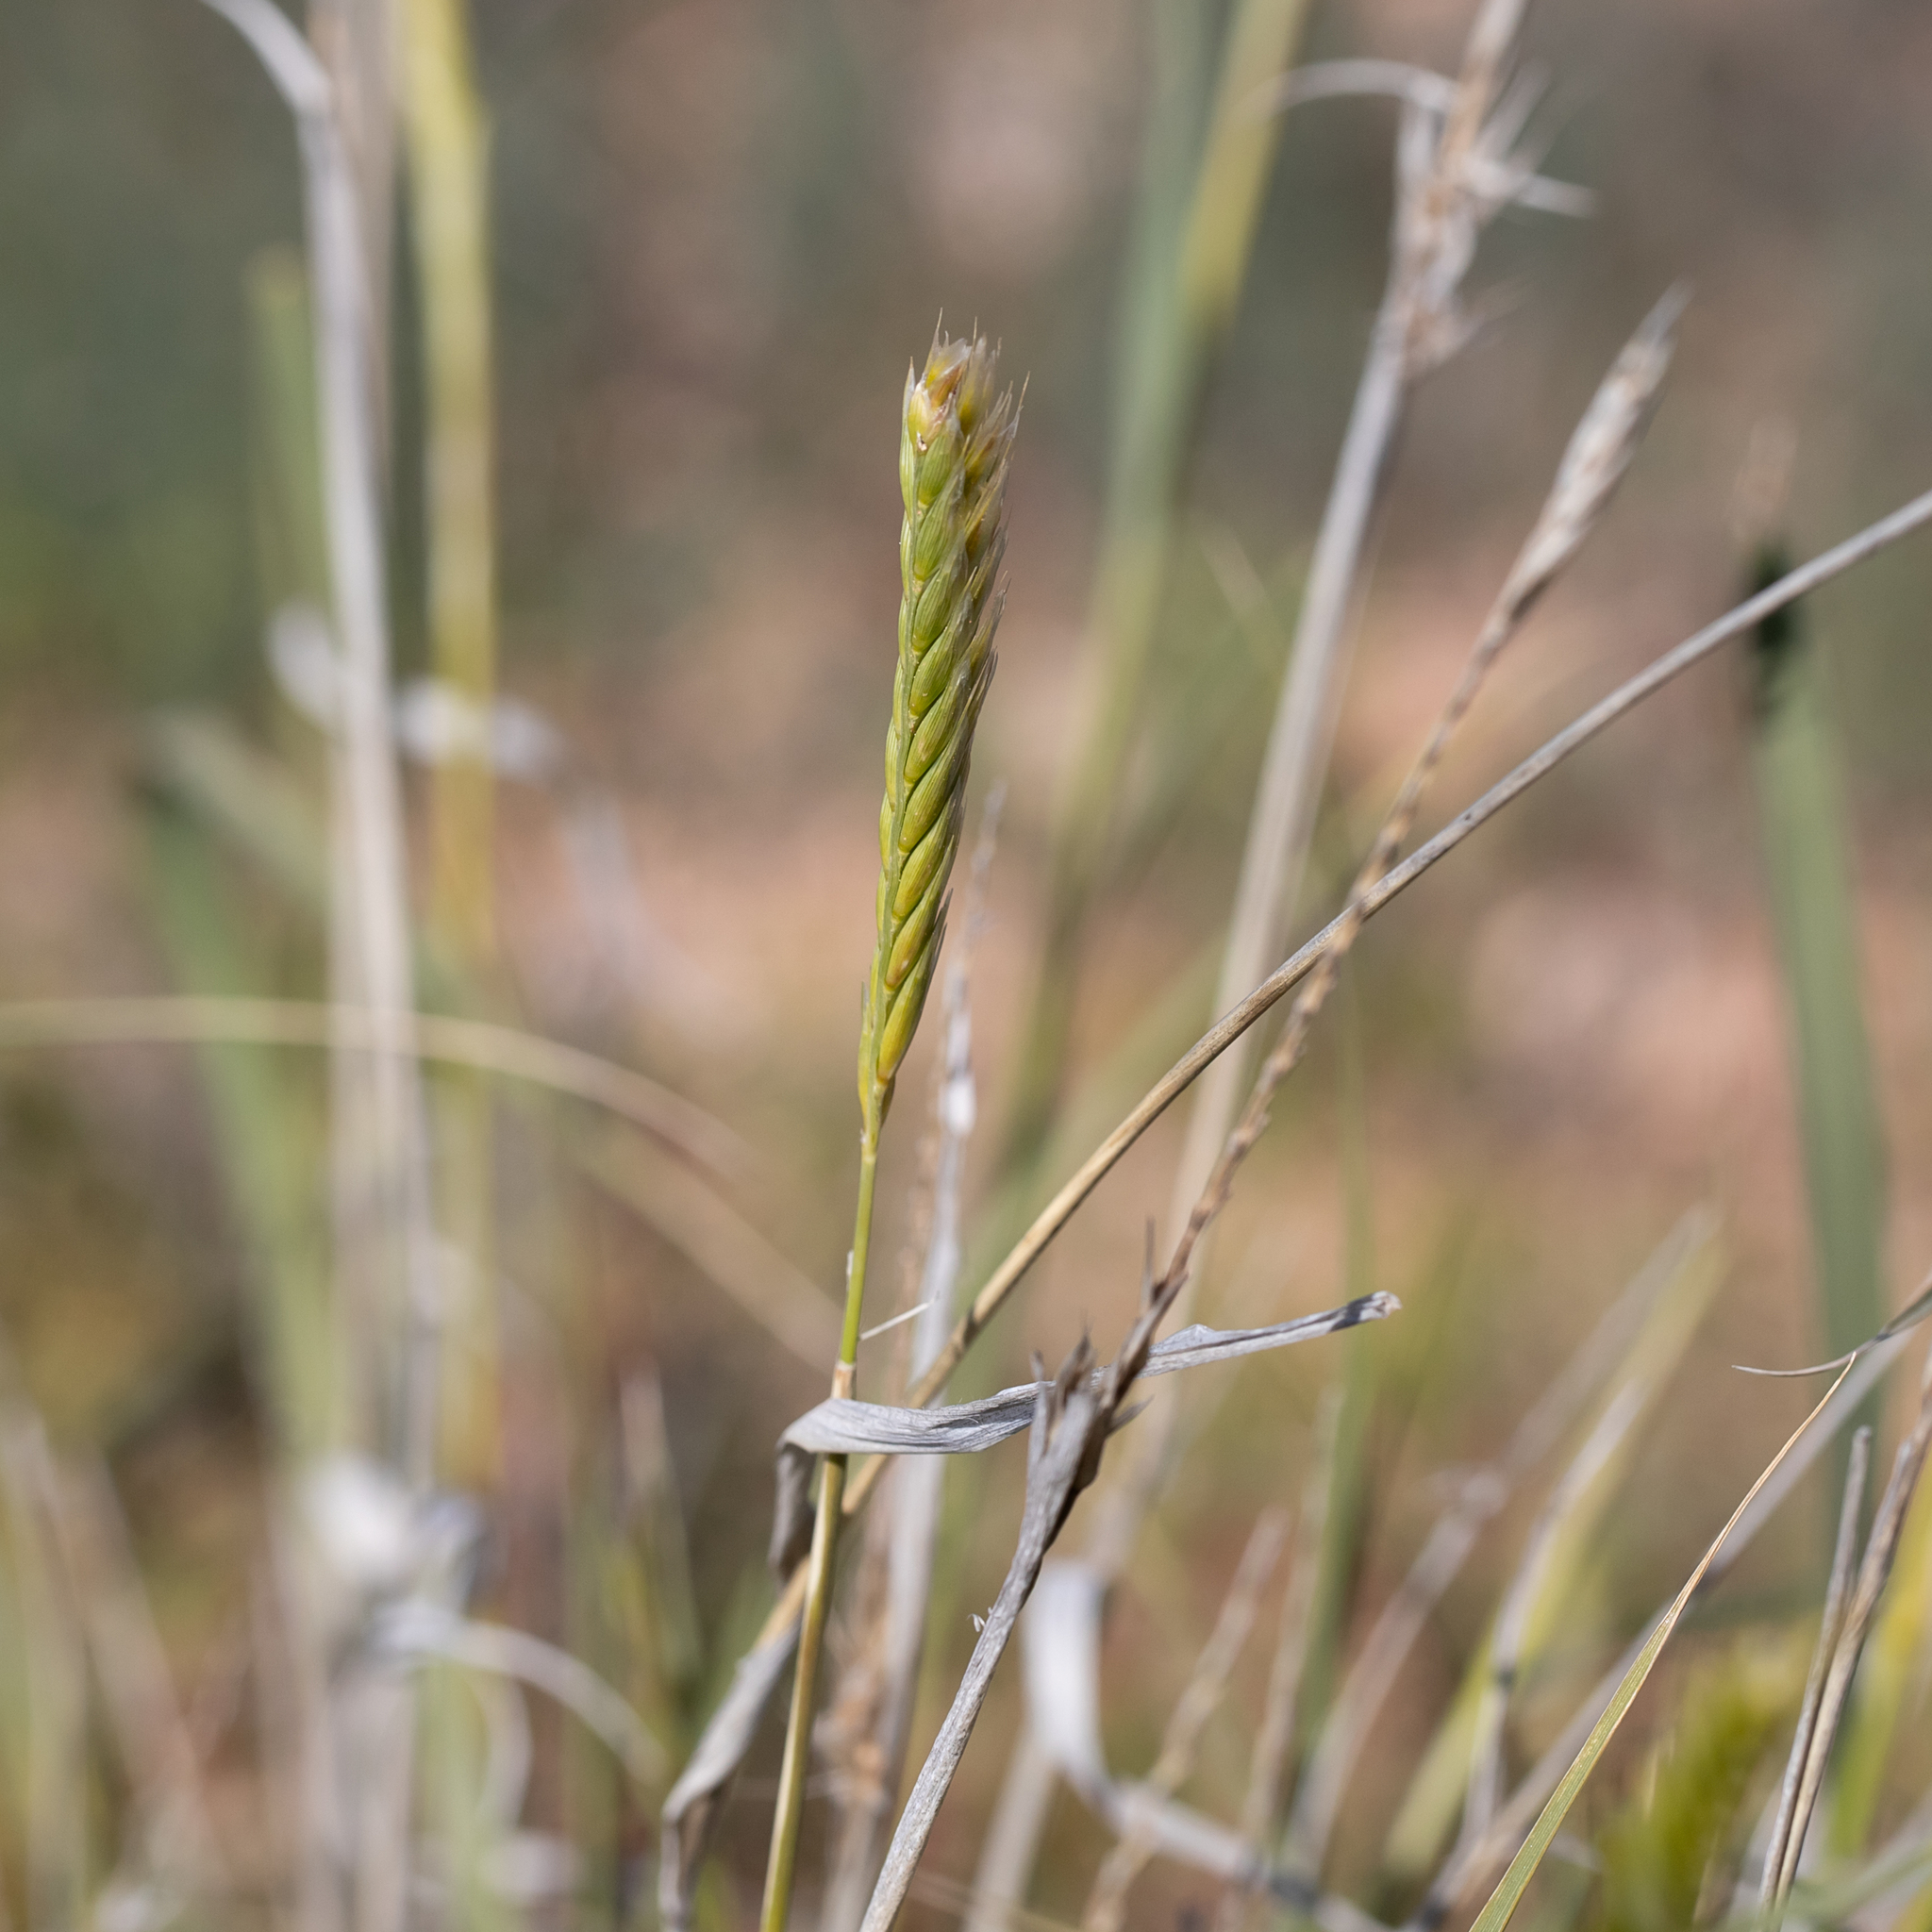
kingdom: Plantae
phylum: Tracheophyta
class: Liliopsida
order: Poales
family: Poaceae
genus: Astrebla
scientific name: Astrebla pectinata
